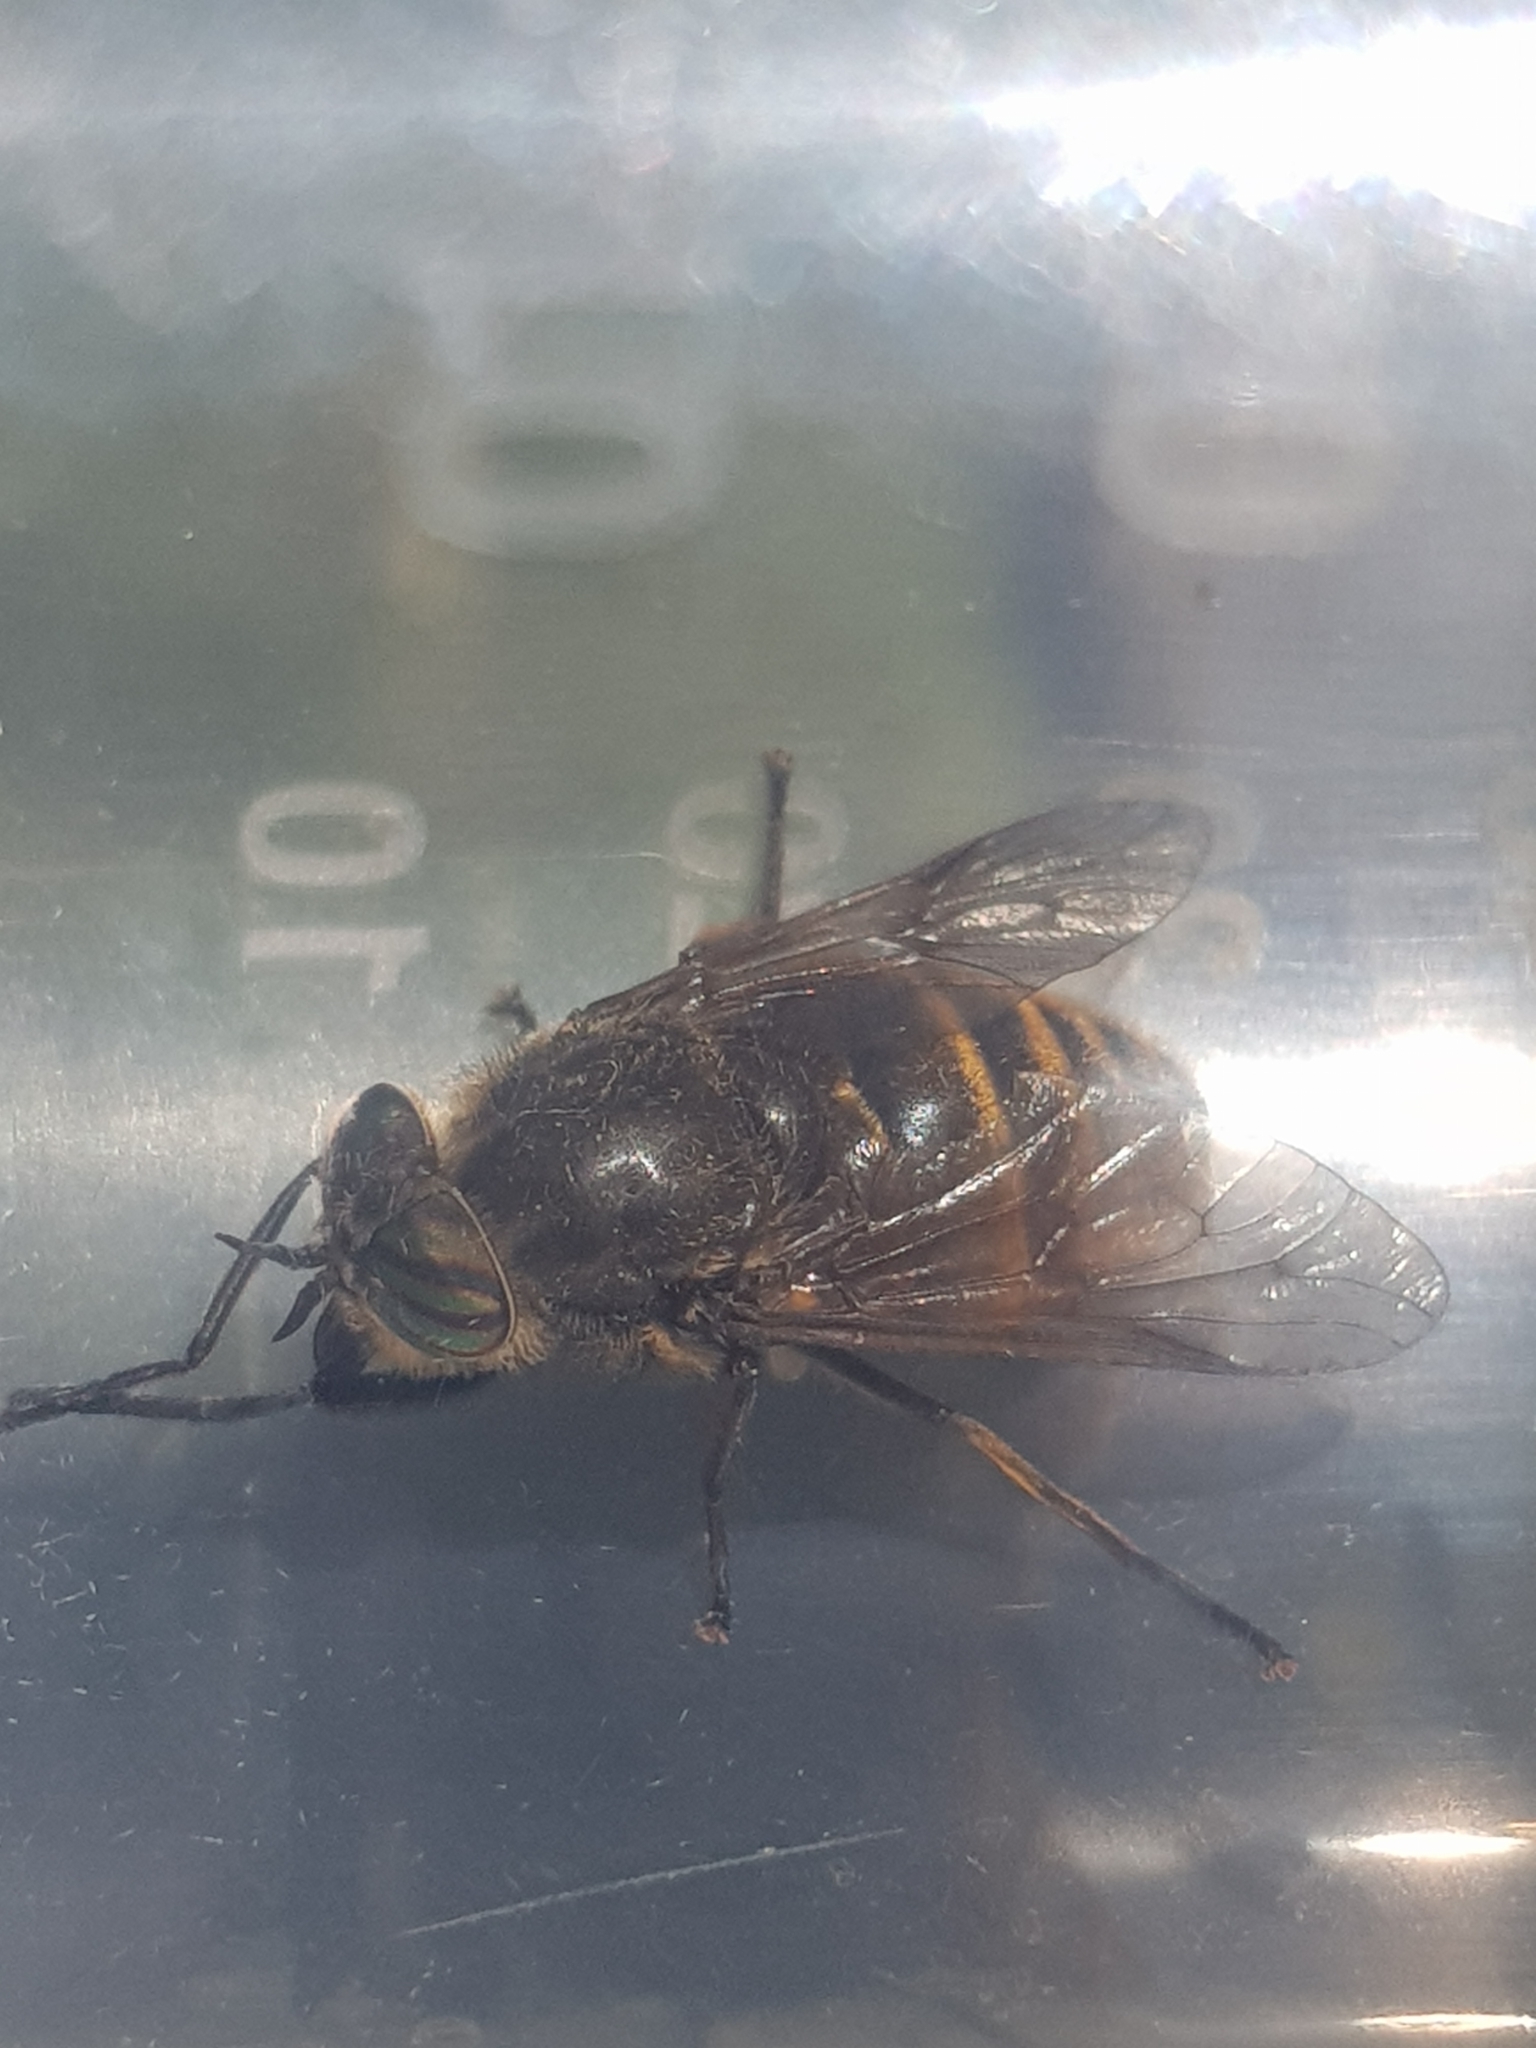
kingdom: Animalia
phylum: Arthropoda
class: Insecta
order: Diptera
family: Tabanidae
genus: Hybomitra
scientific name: Hybomitra auripila
